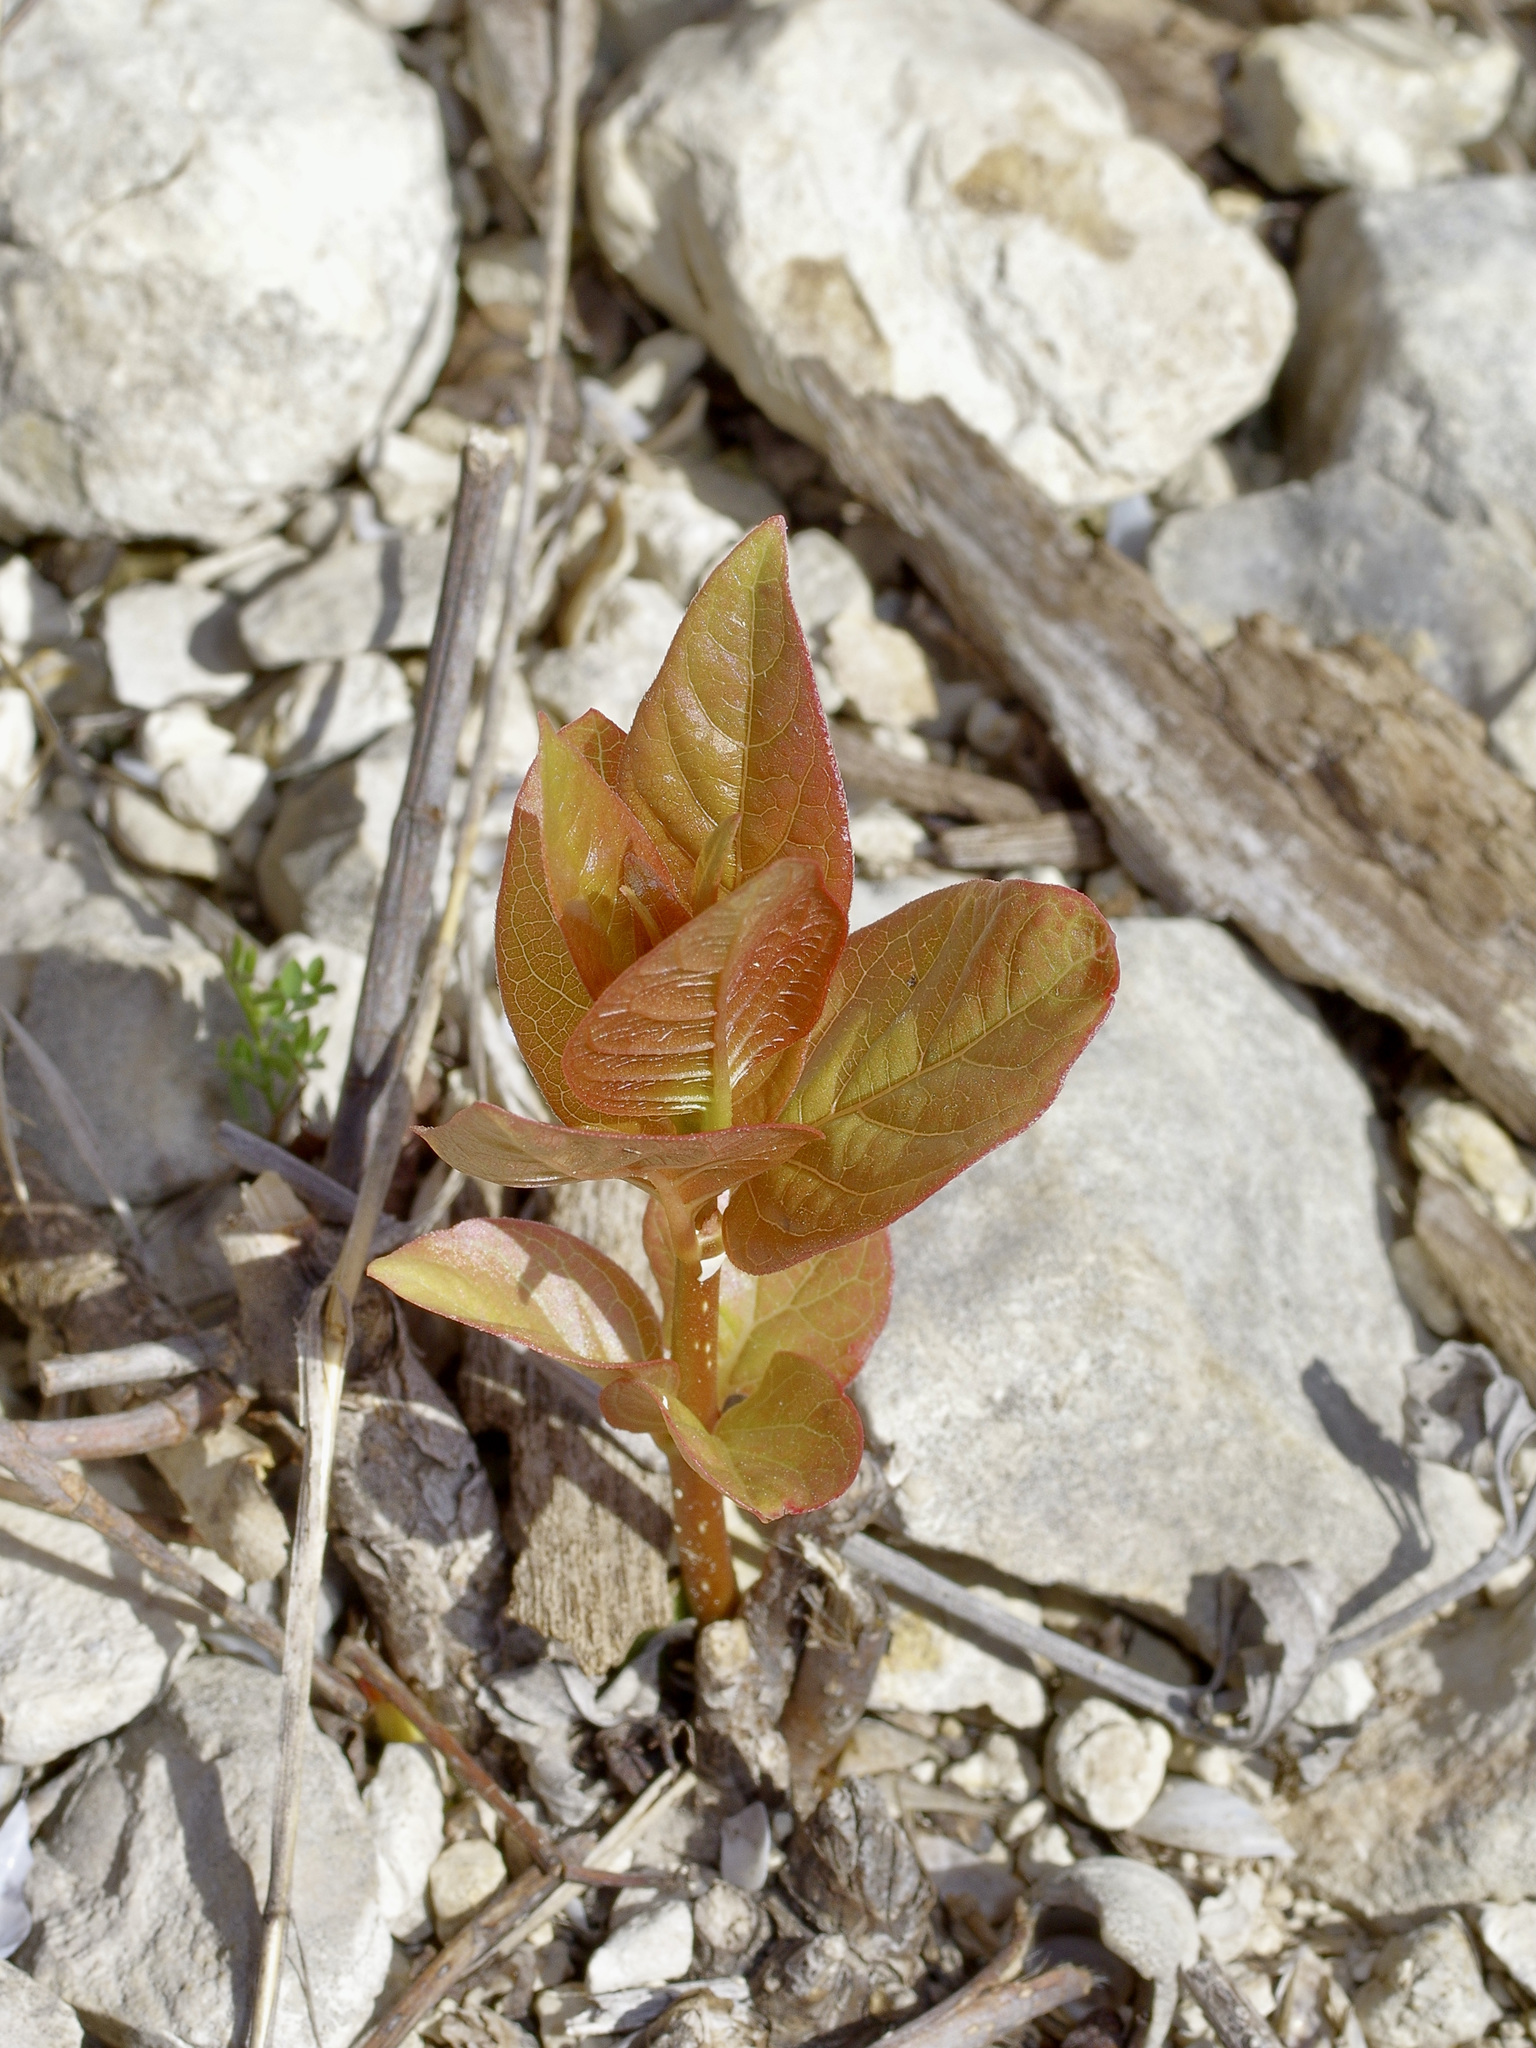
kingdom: Plantae
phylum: Tracheophyta
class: Magnoliopsida
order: Gentianales
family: Rubiaceae
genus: Cephalanthus
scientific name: Cephalanthus occidentalis
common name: Button-willow
